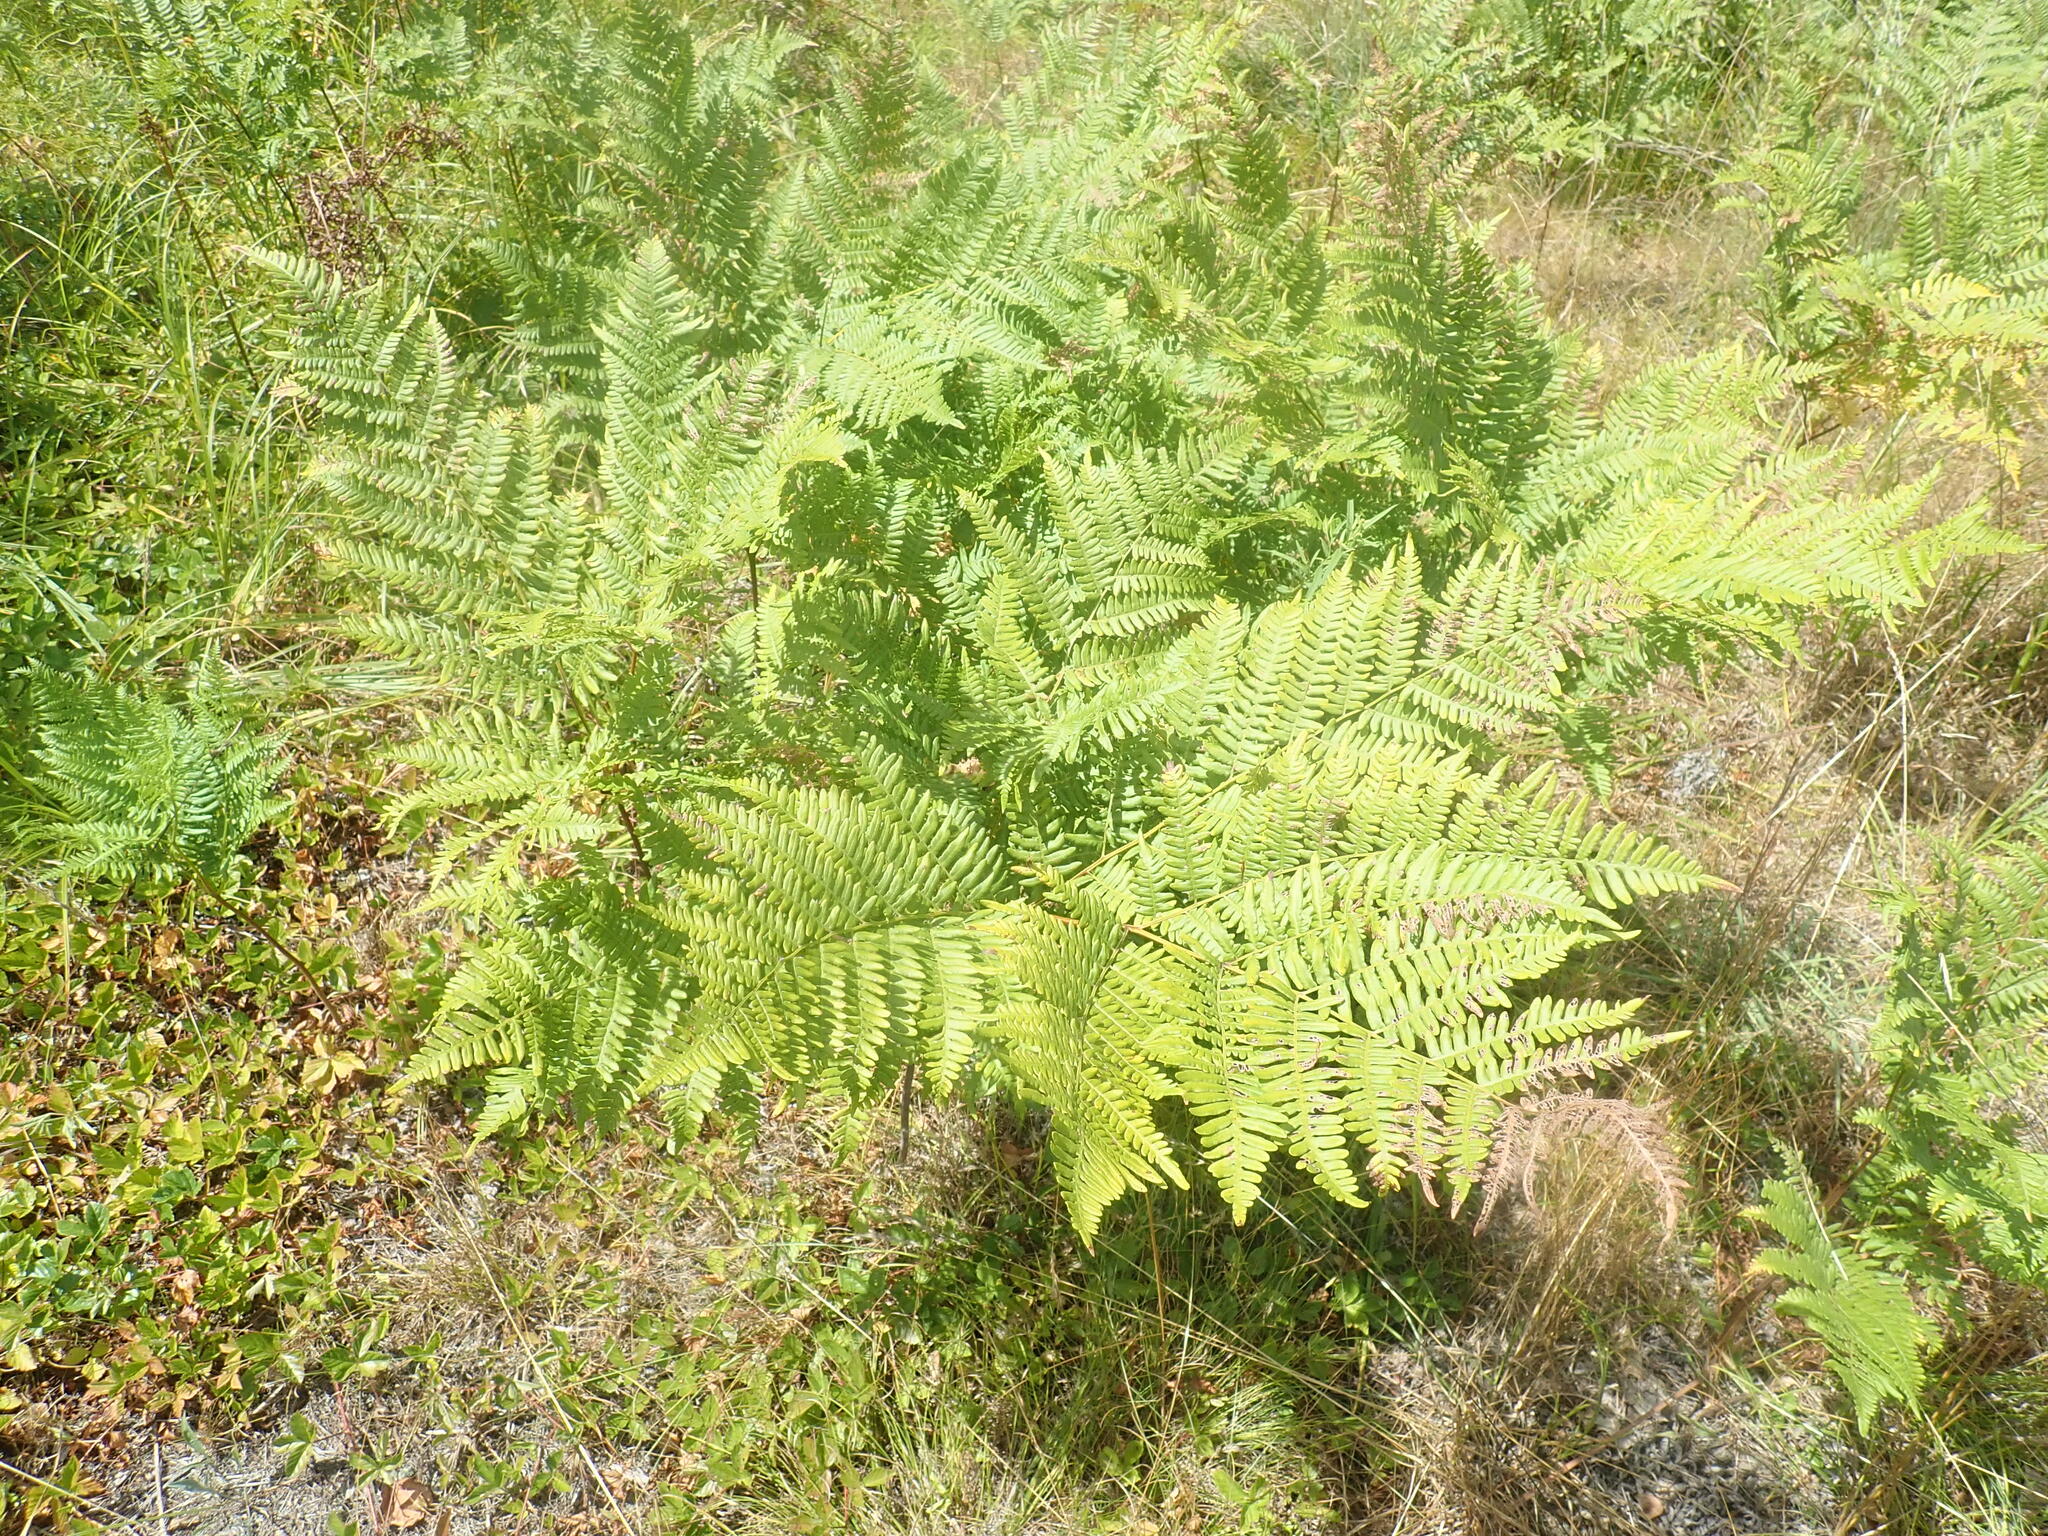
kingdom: Plantae
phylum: Tracheophyta
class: Polypodiopsida
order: Polypodiales
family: Dennstaedtiaceae
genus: Pteridium
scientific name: Pteridium aquilinum
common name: Bracken
